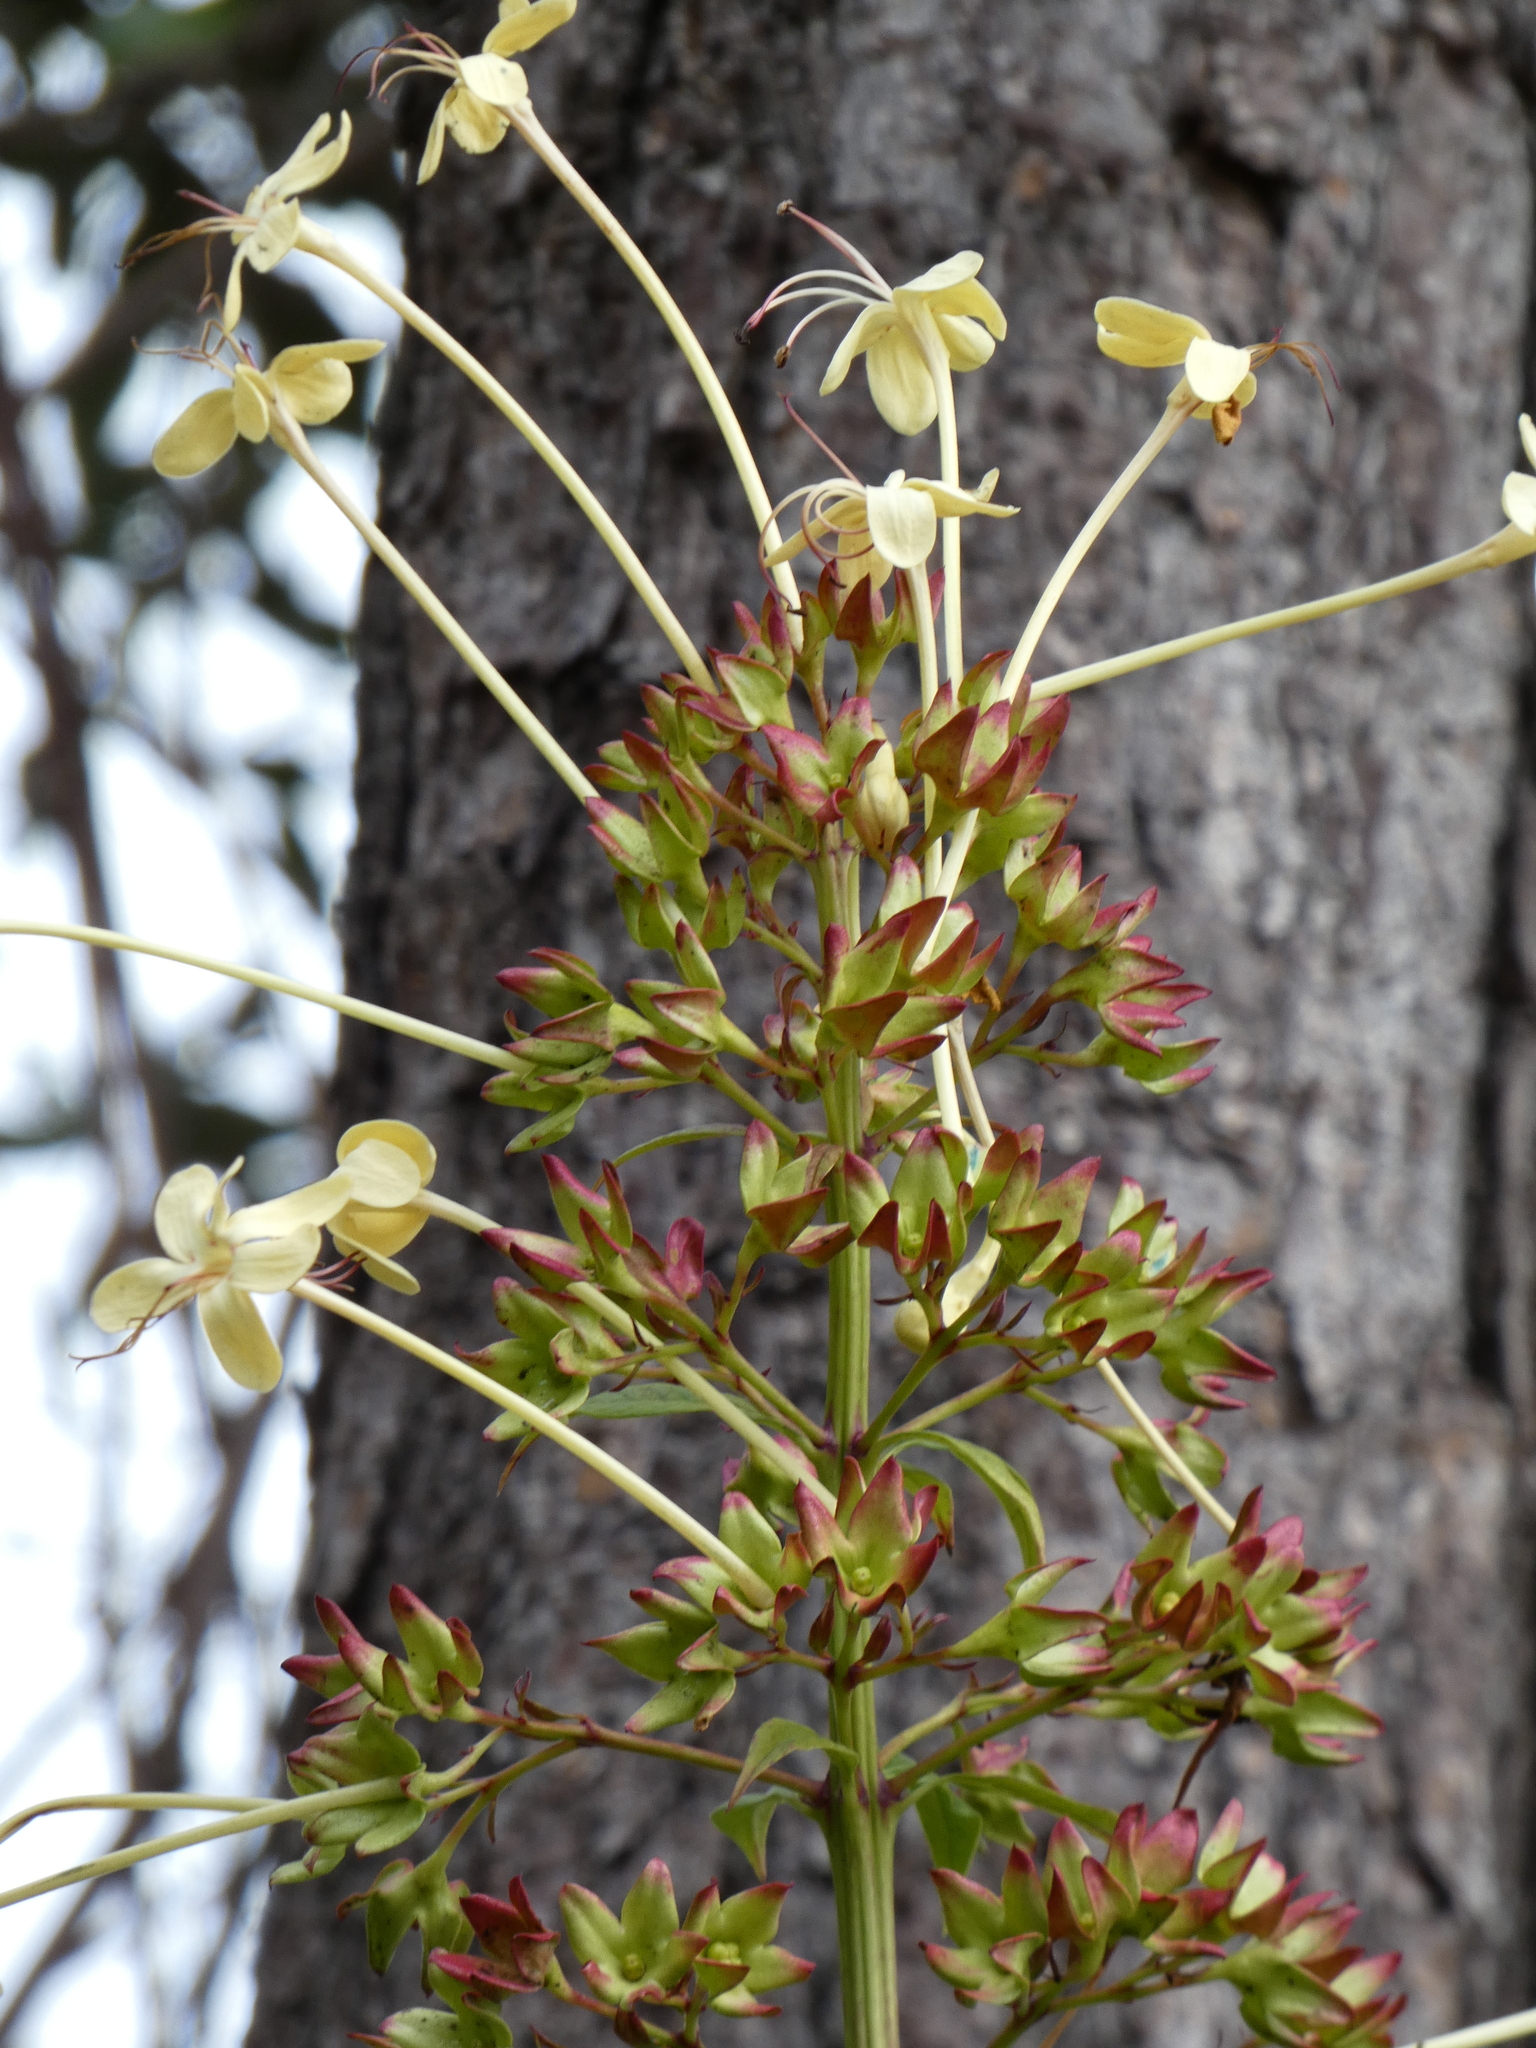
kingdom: Plantae
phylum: Tracheophyta
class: Magnoliopsida
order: Lamiales
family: Lamiaceae
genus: Clerodendrum
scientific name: Clerodendrum indicum
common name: Turk's turbin
